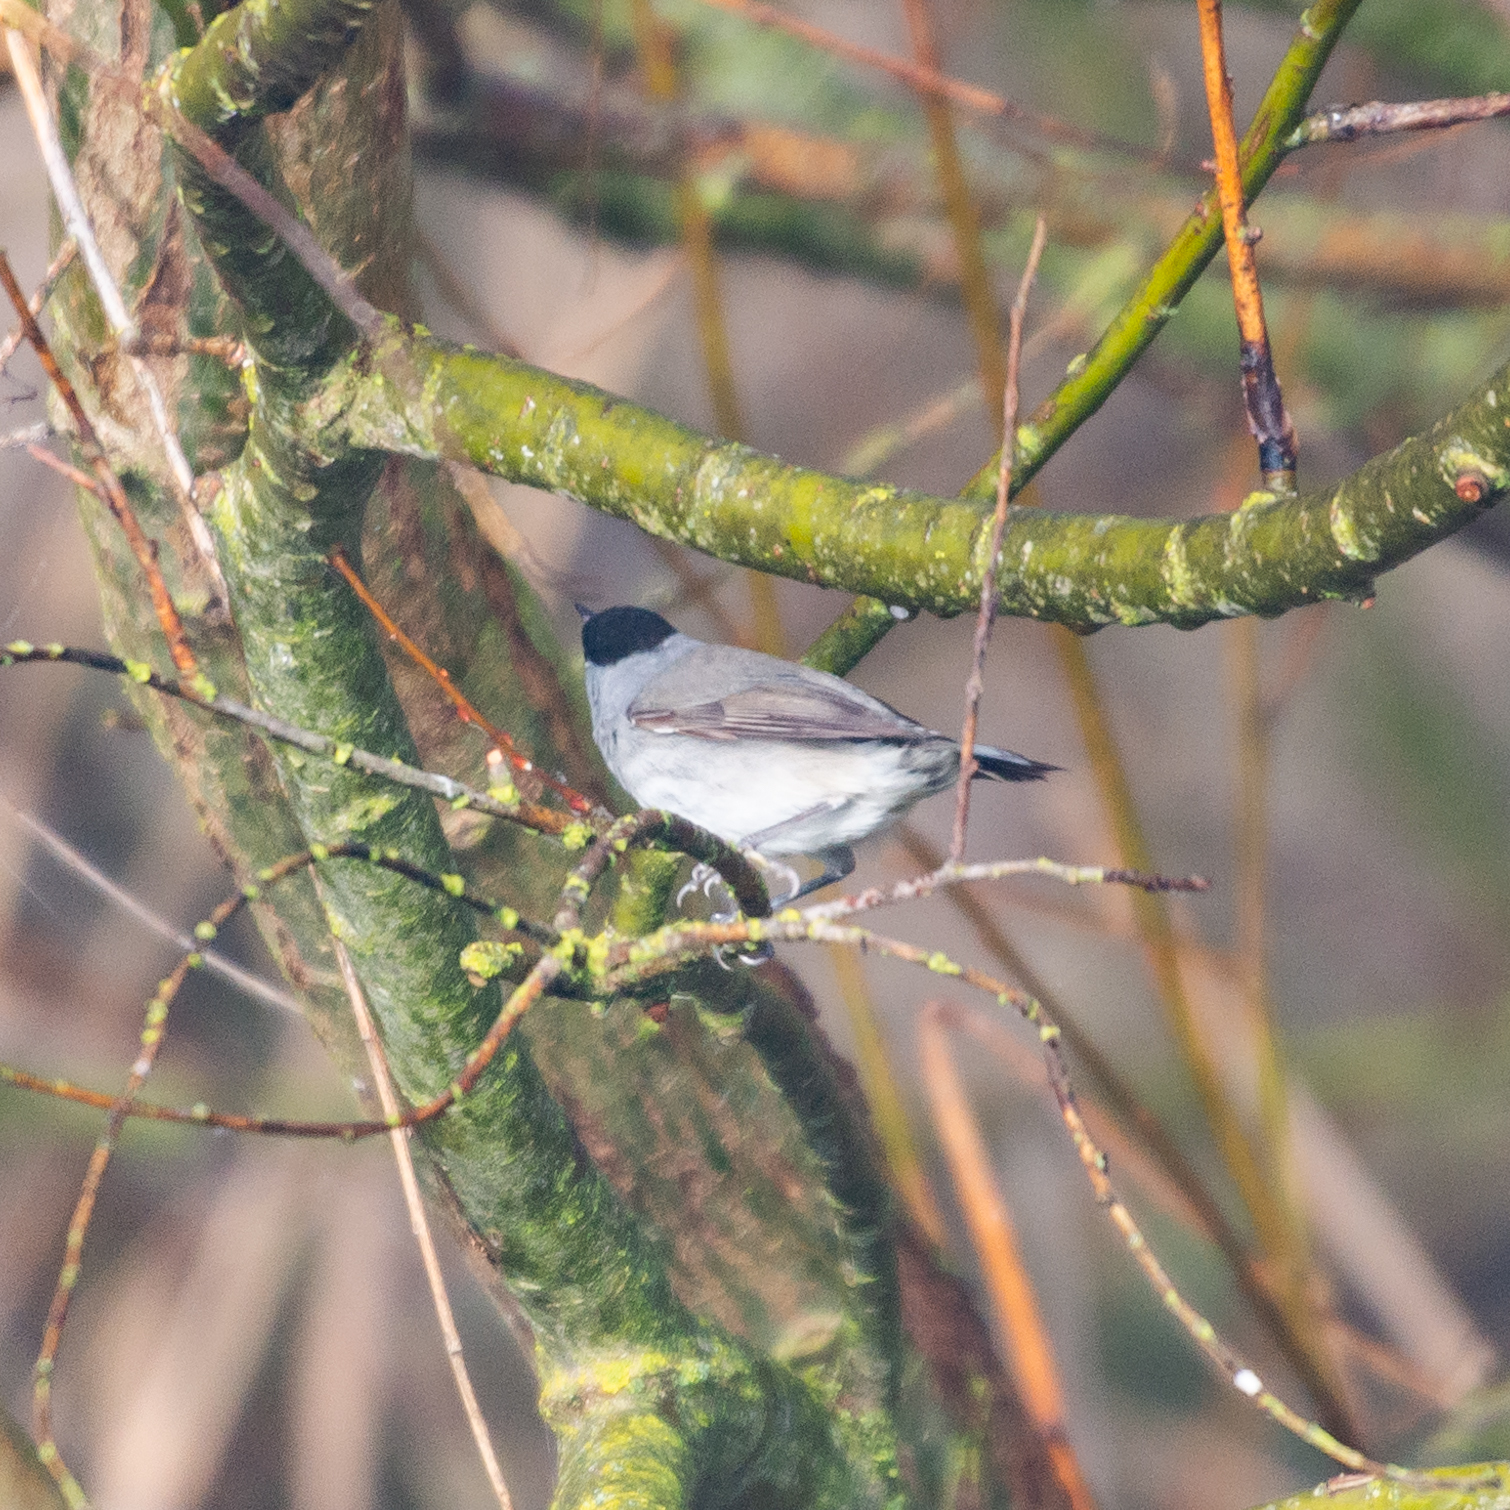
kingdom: Animalia
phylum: Chordata
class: Aves
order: Passeriformes
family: Sylviidae
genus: Sylvia
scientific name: Sylvia atricapilla
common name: Eurasian blackcap
